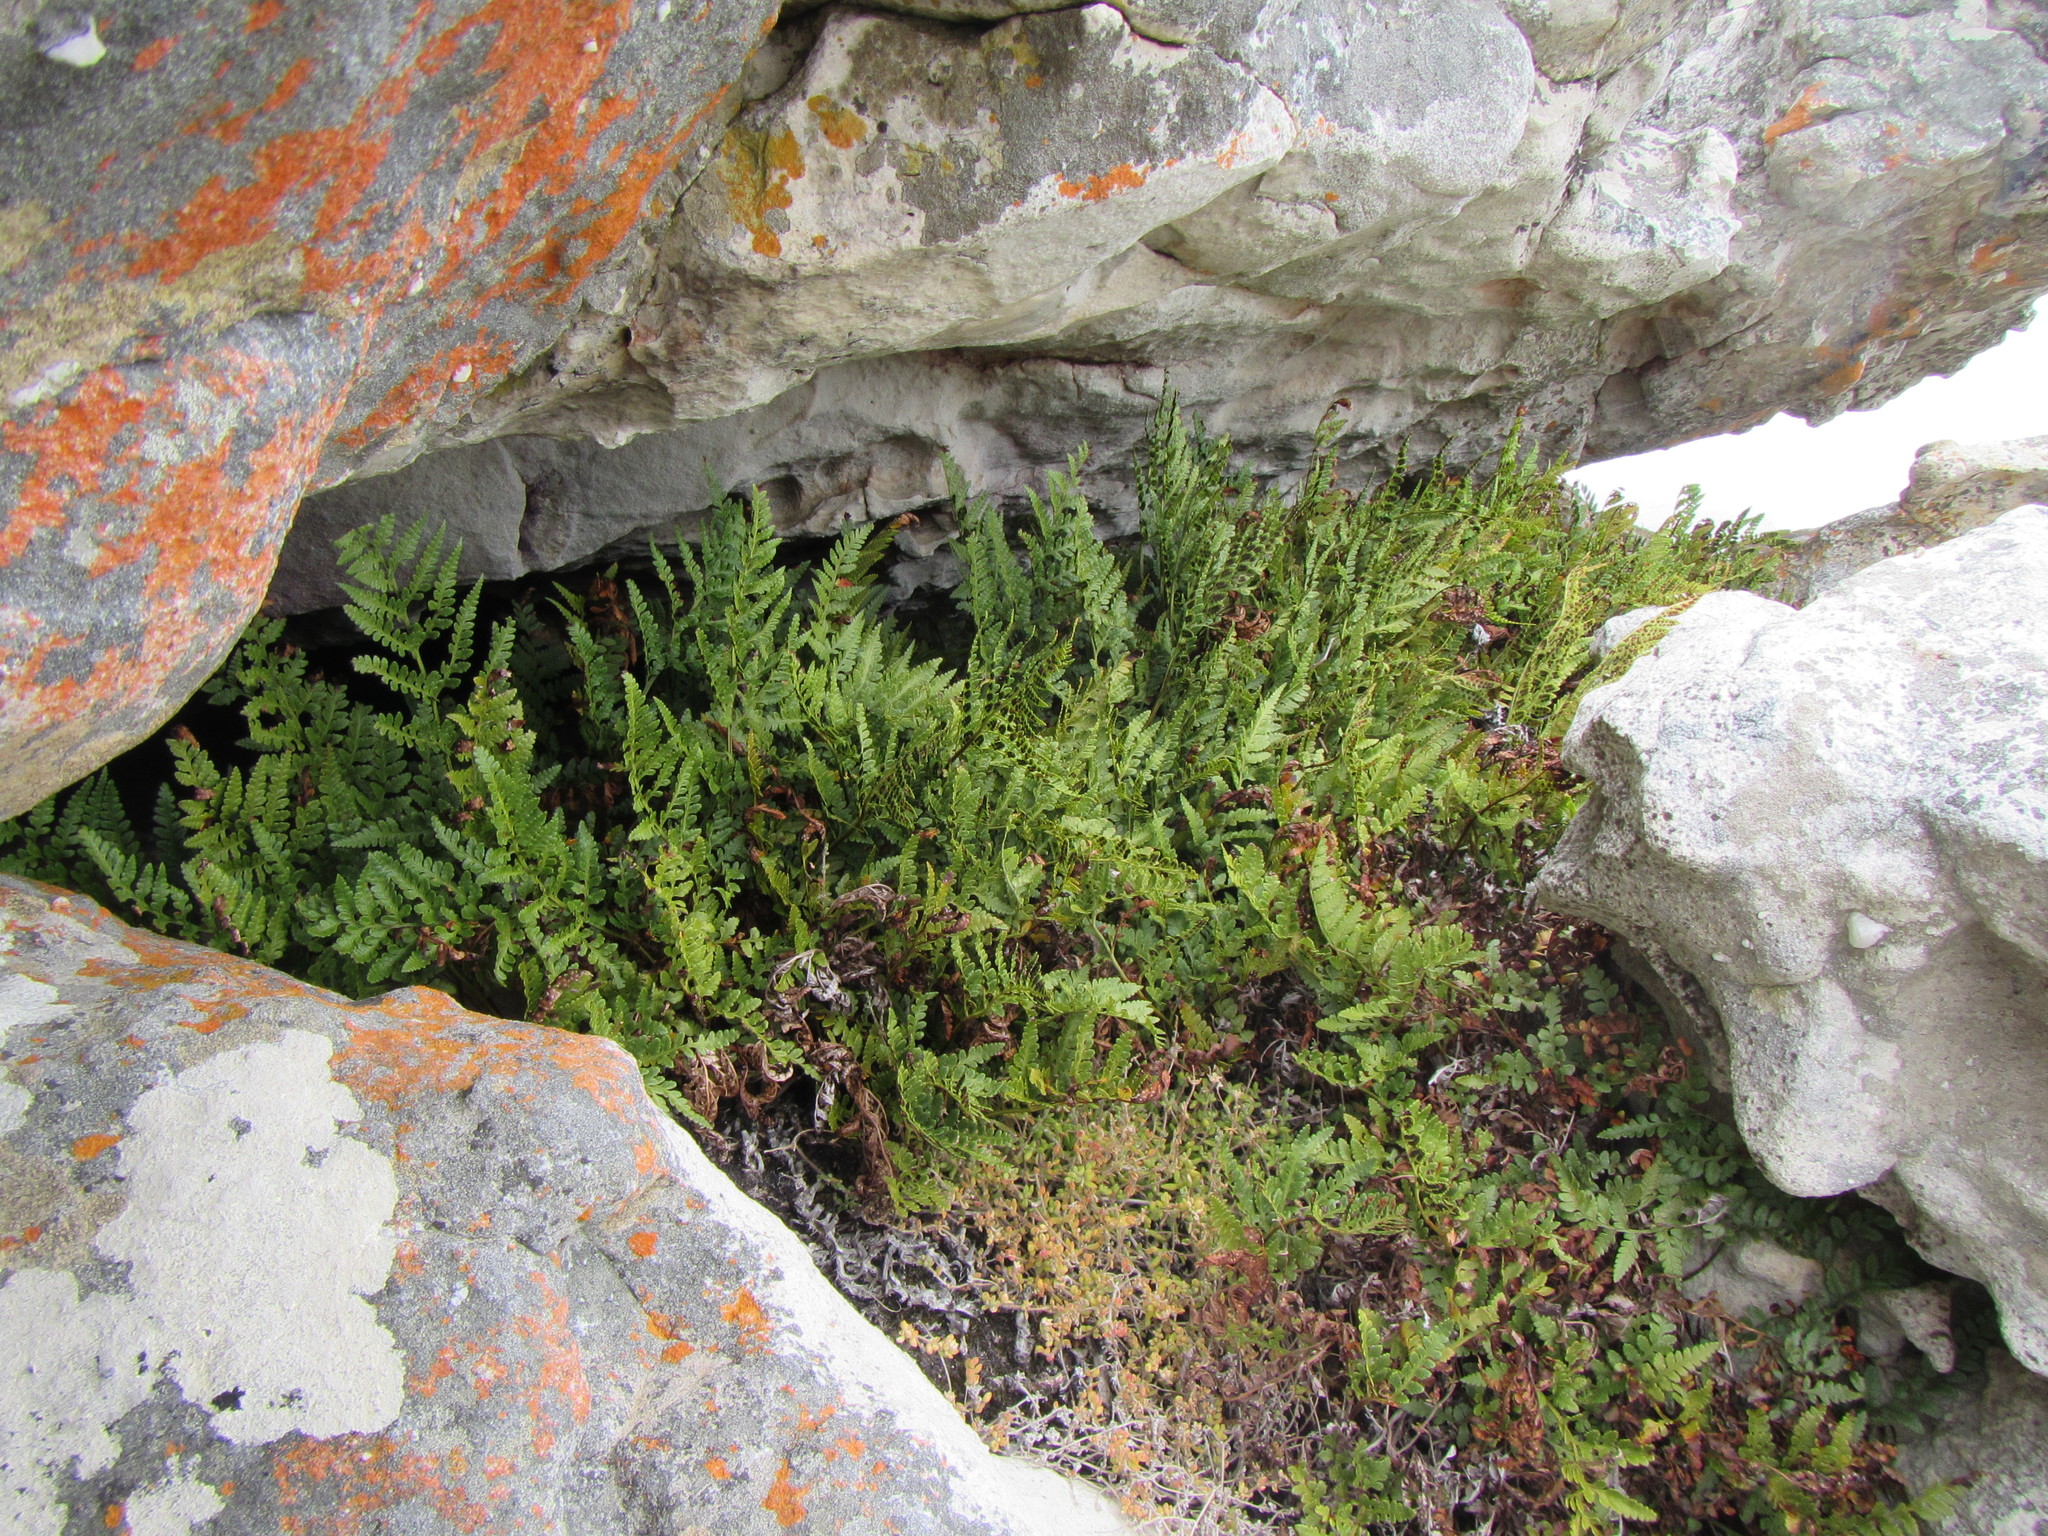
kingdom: Plantae
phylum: Tracheophyta
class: Polypodiopsida
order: Polypodiales
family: Dryopteridaceae
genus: Rumohra
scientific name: Rumohra adiantiformis
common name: Leather fern
